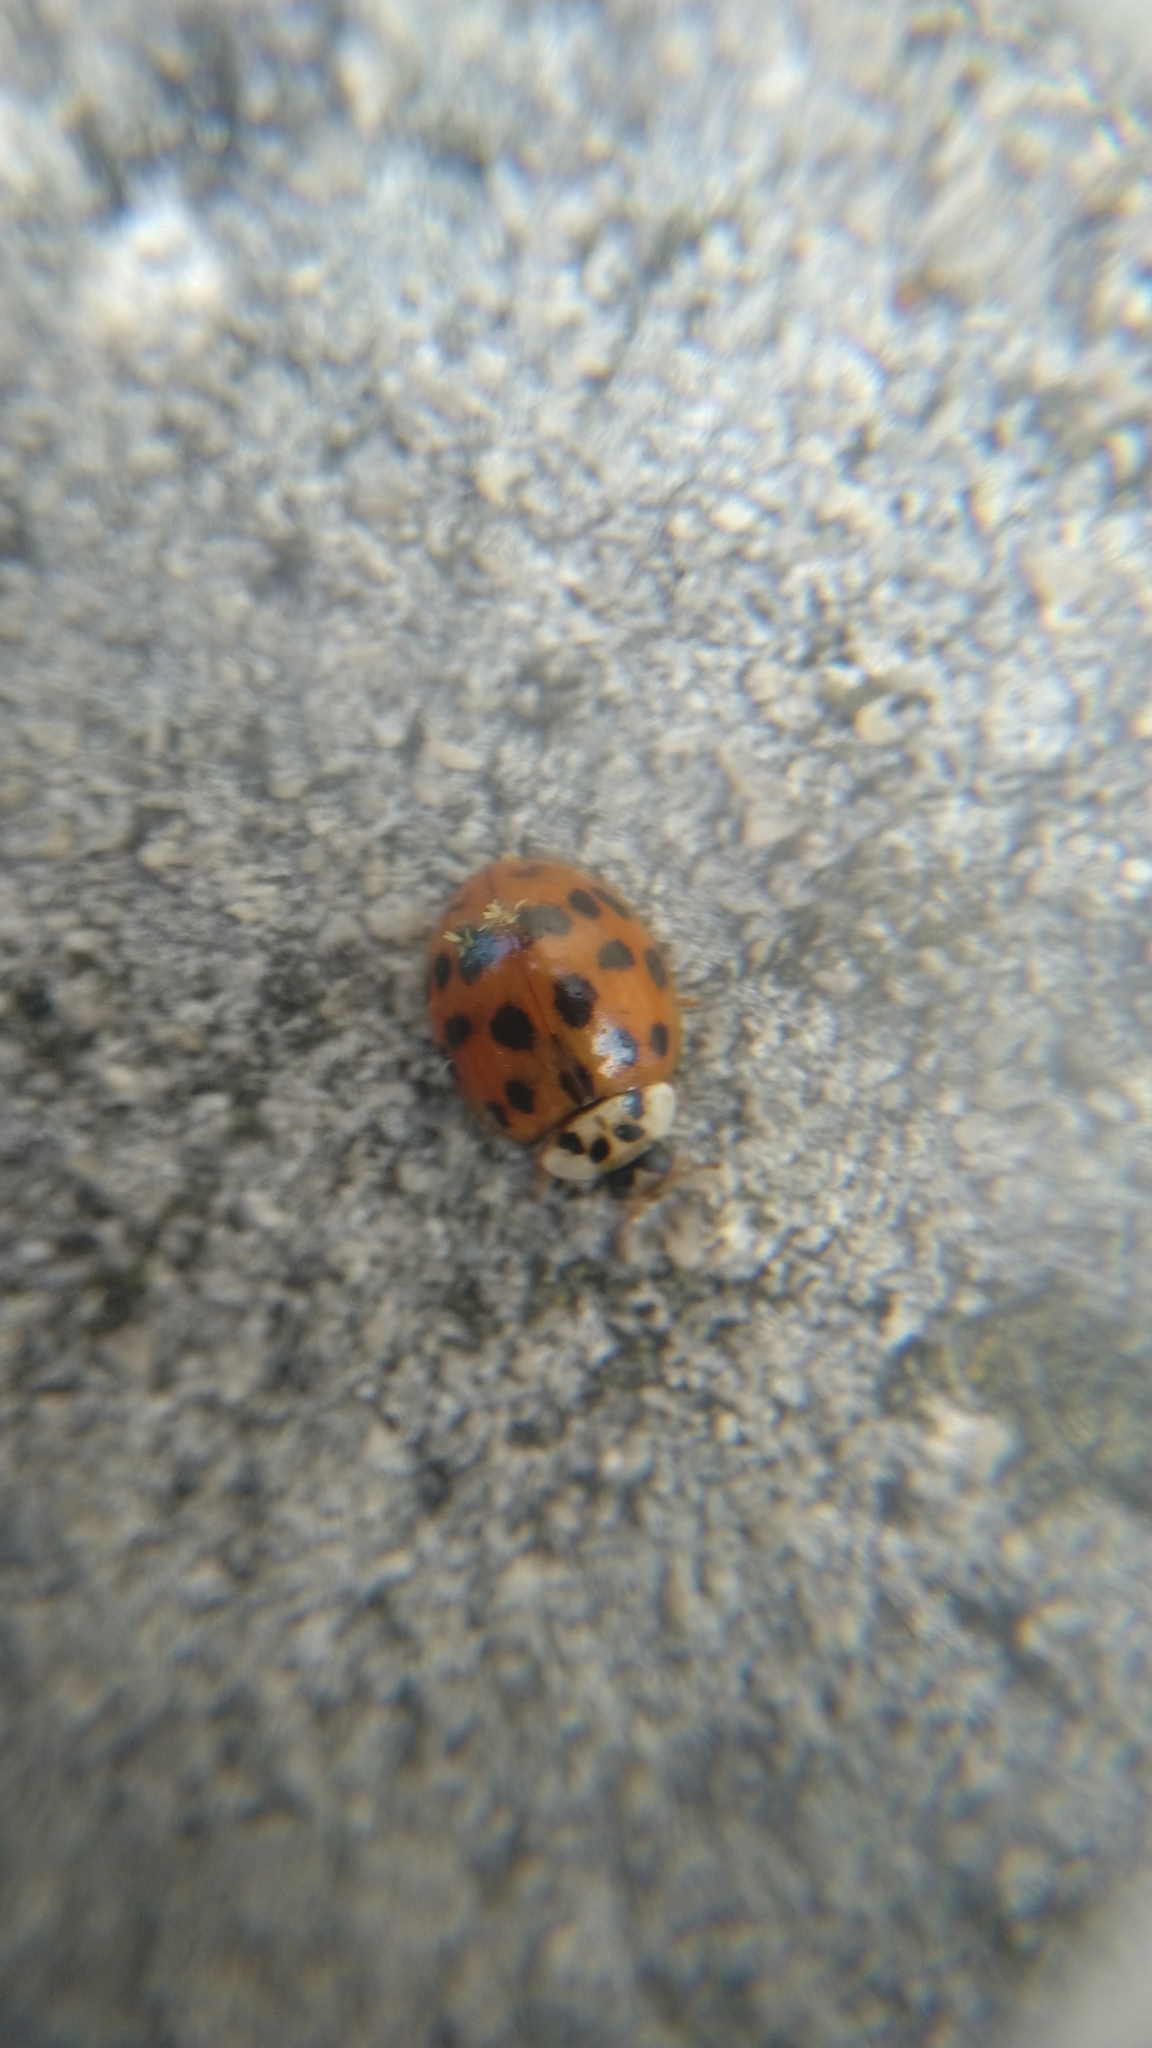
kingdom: Animalia
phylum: Arthropoda
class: Insecta
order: Coleoptera
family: Coccinellidae
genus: Harmonia
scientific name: Harmonia axyridis
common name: Harlequin ladybird
